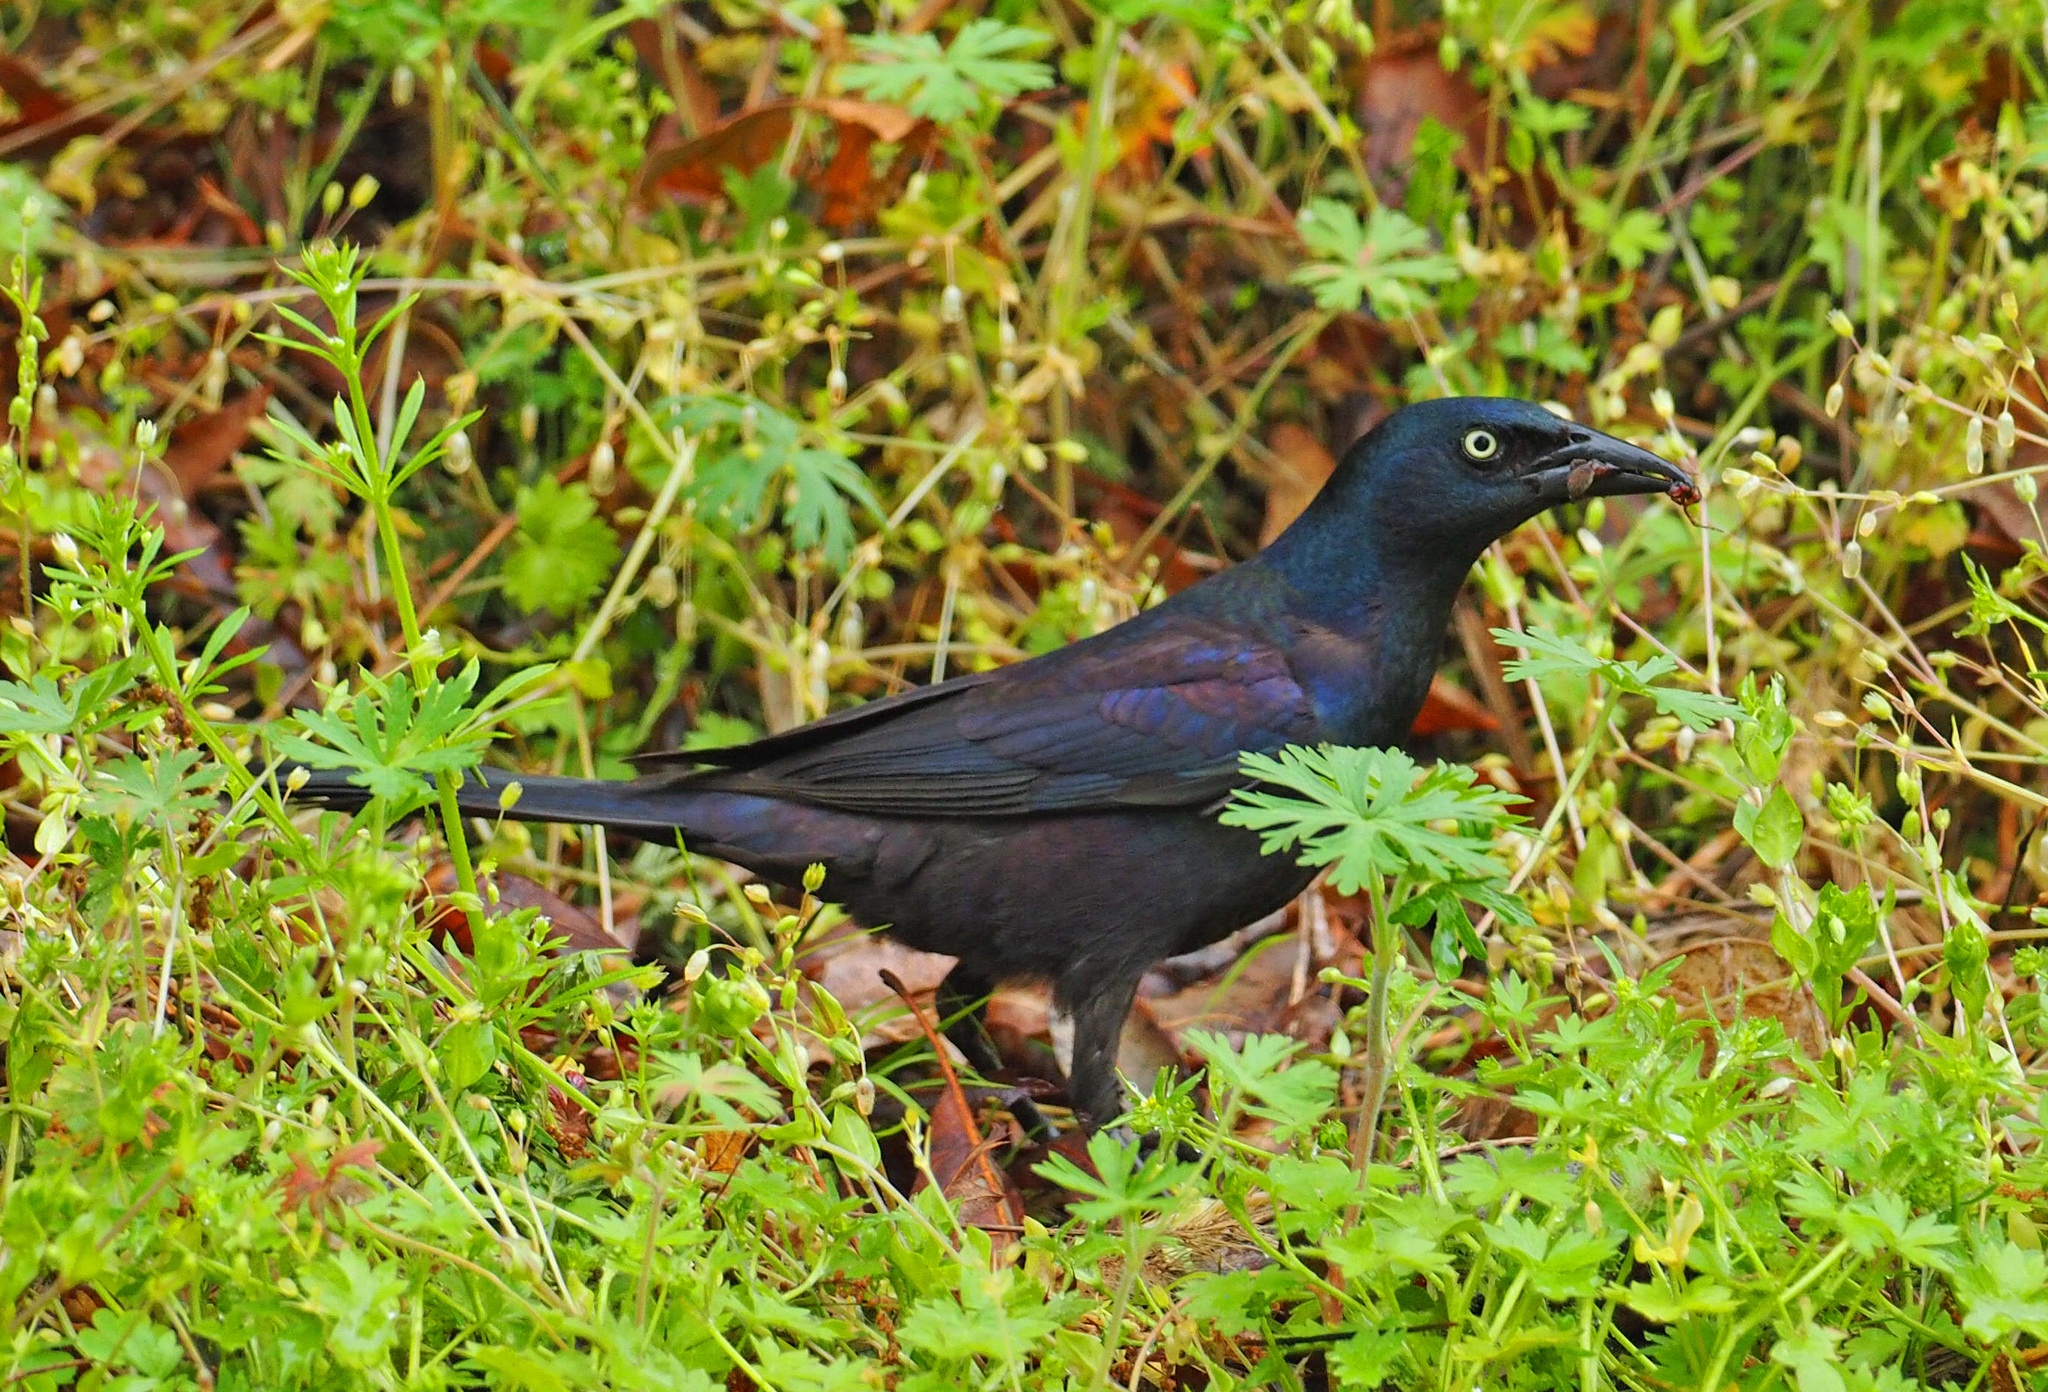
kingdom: Animalia
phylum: Chordata
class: Aves
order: Passeriformes
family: Icteridae
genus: Quiscalus
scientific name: Quiscalus quiscula
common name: Common grackle
